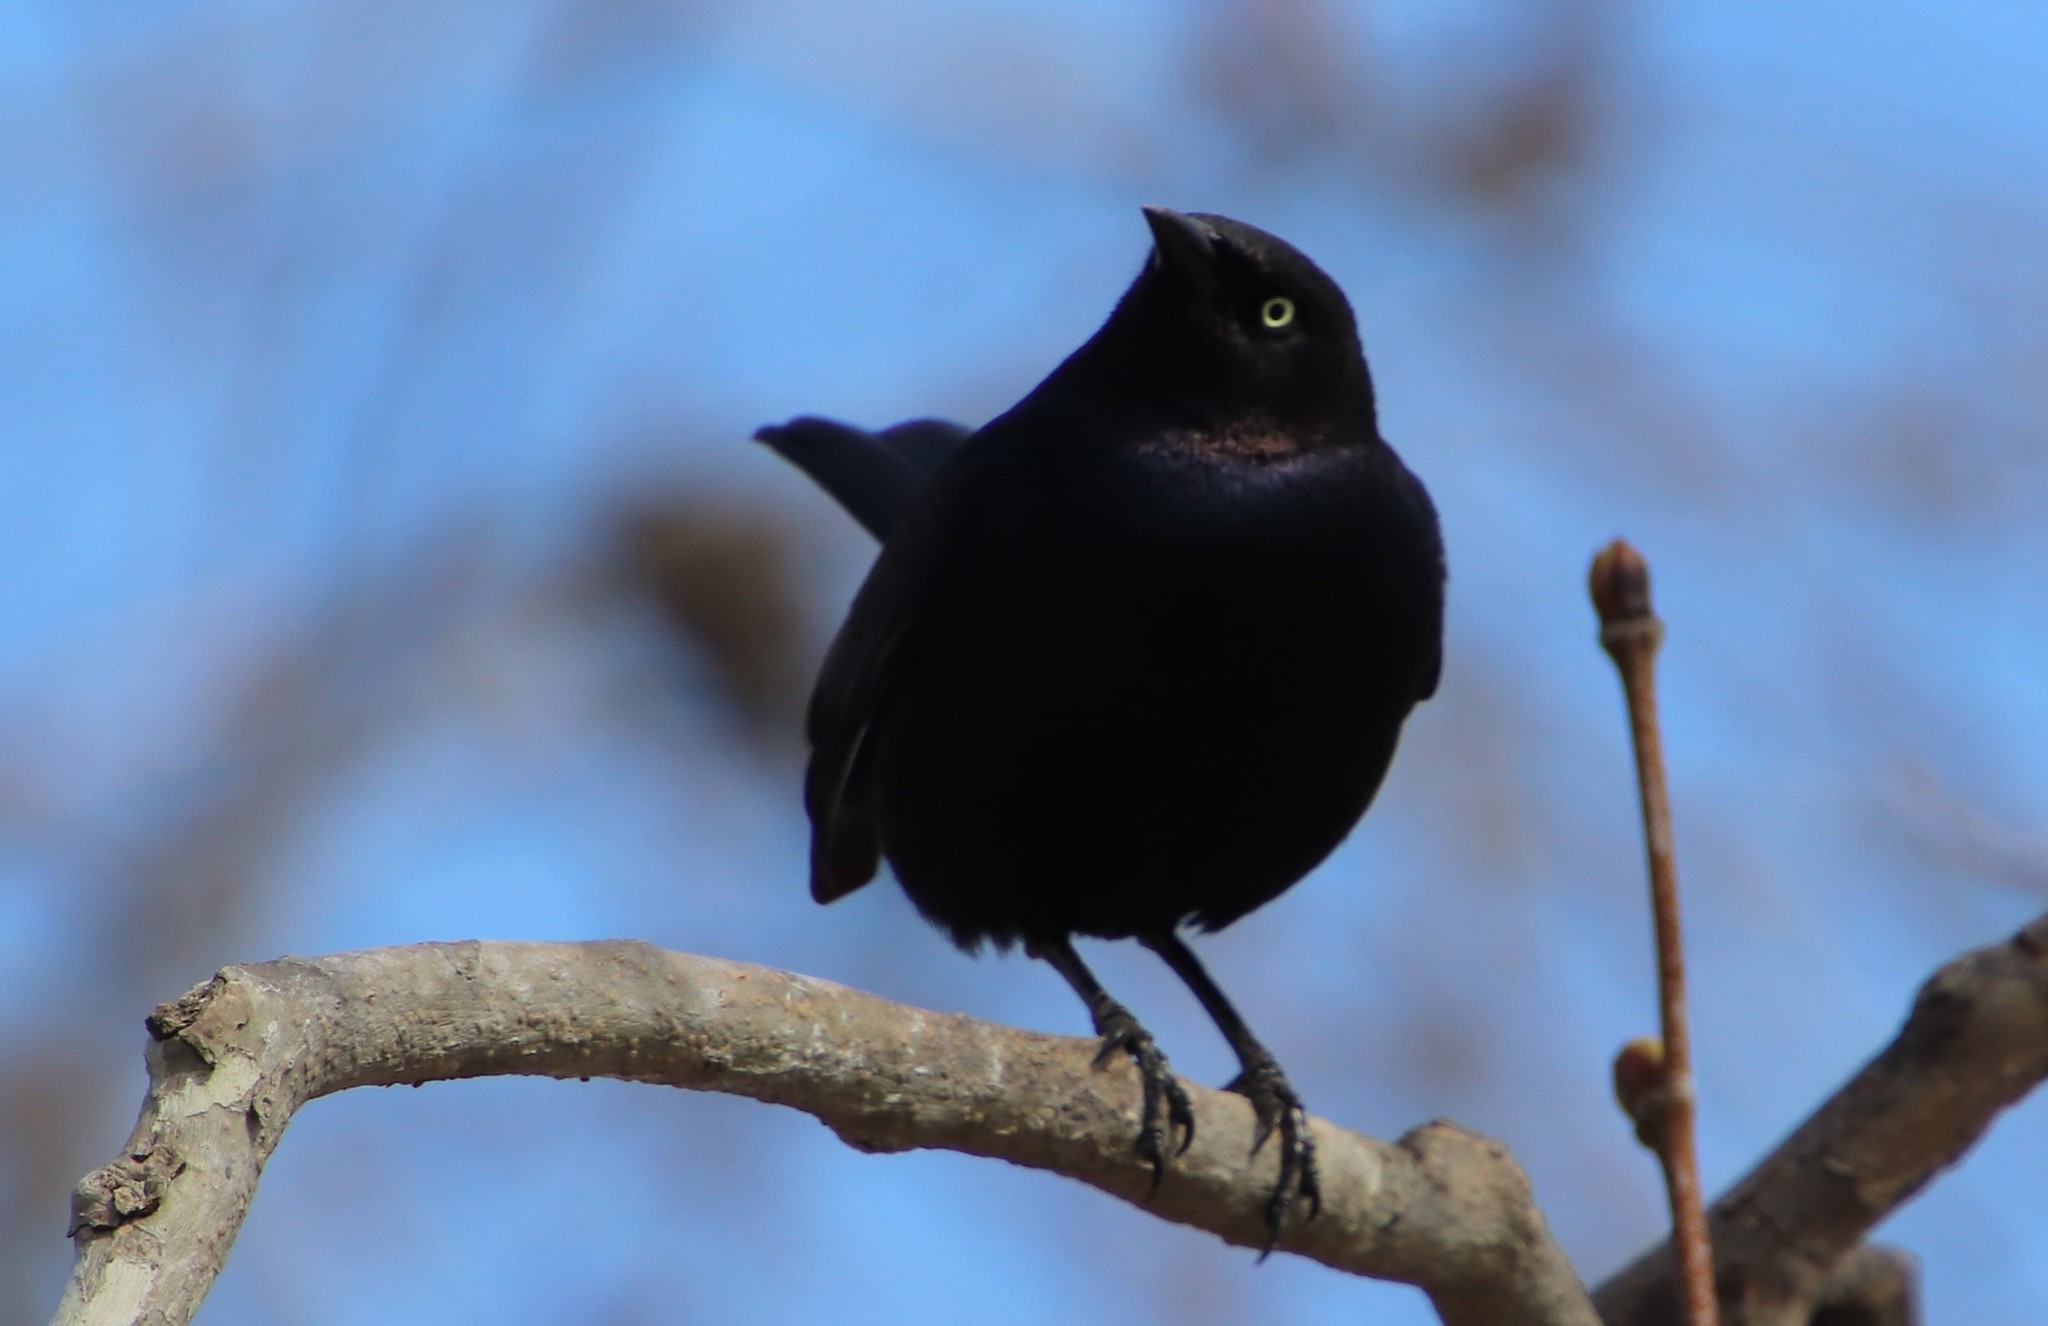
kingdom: Animalia
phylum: Chordata
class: Aves
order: Passeriformes
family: Icteridae
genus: Euphagus
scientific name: Euphagus cyanocephalus
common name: Brewer's blackbird
